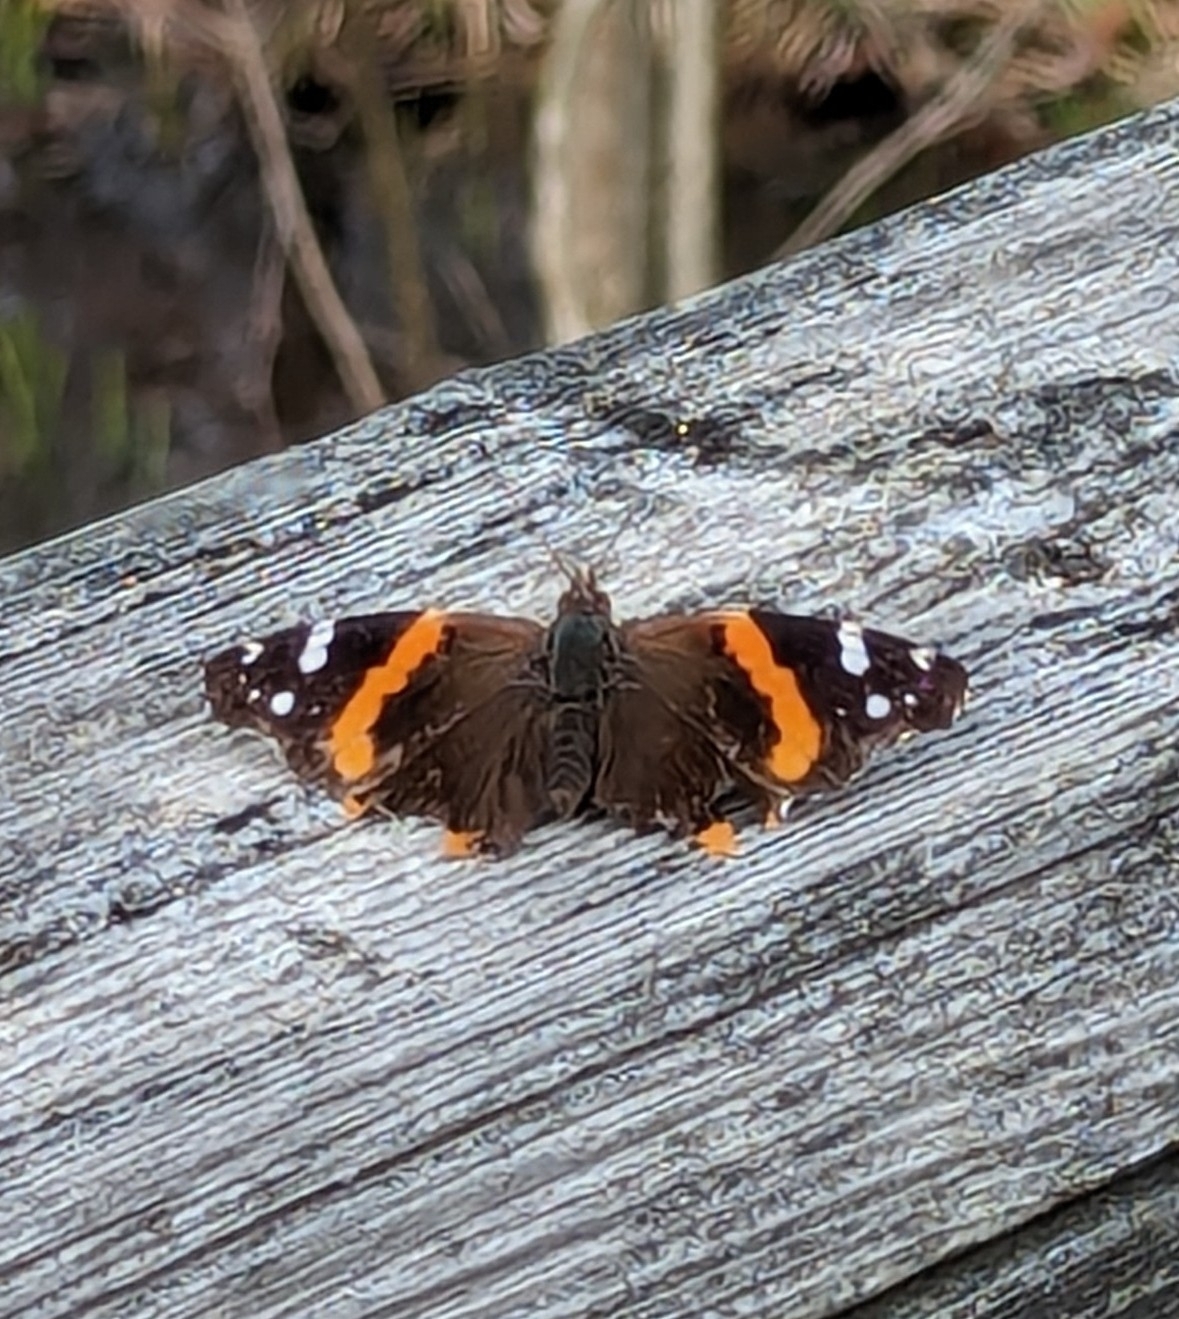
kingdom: Animalia
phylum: Arthropoda
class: Insecta
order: Lepidoptera
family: Nymphalidae
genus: Vanessa
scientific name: Vanessa atalanta
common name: Red admiral
